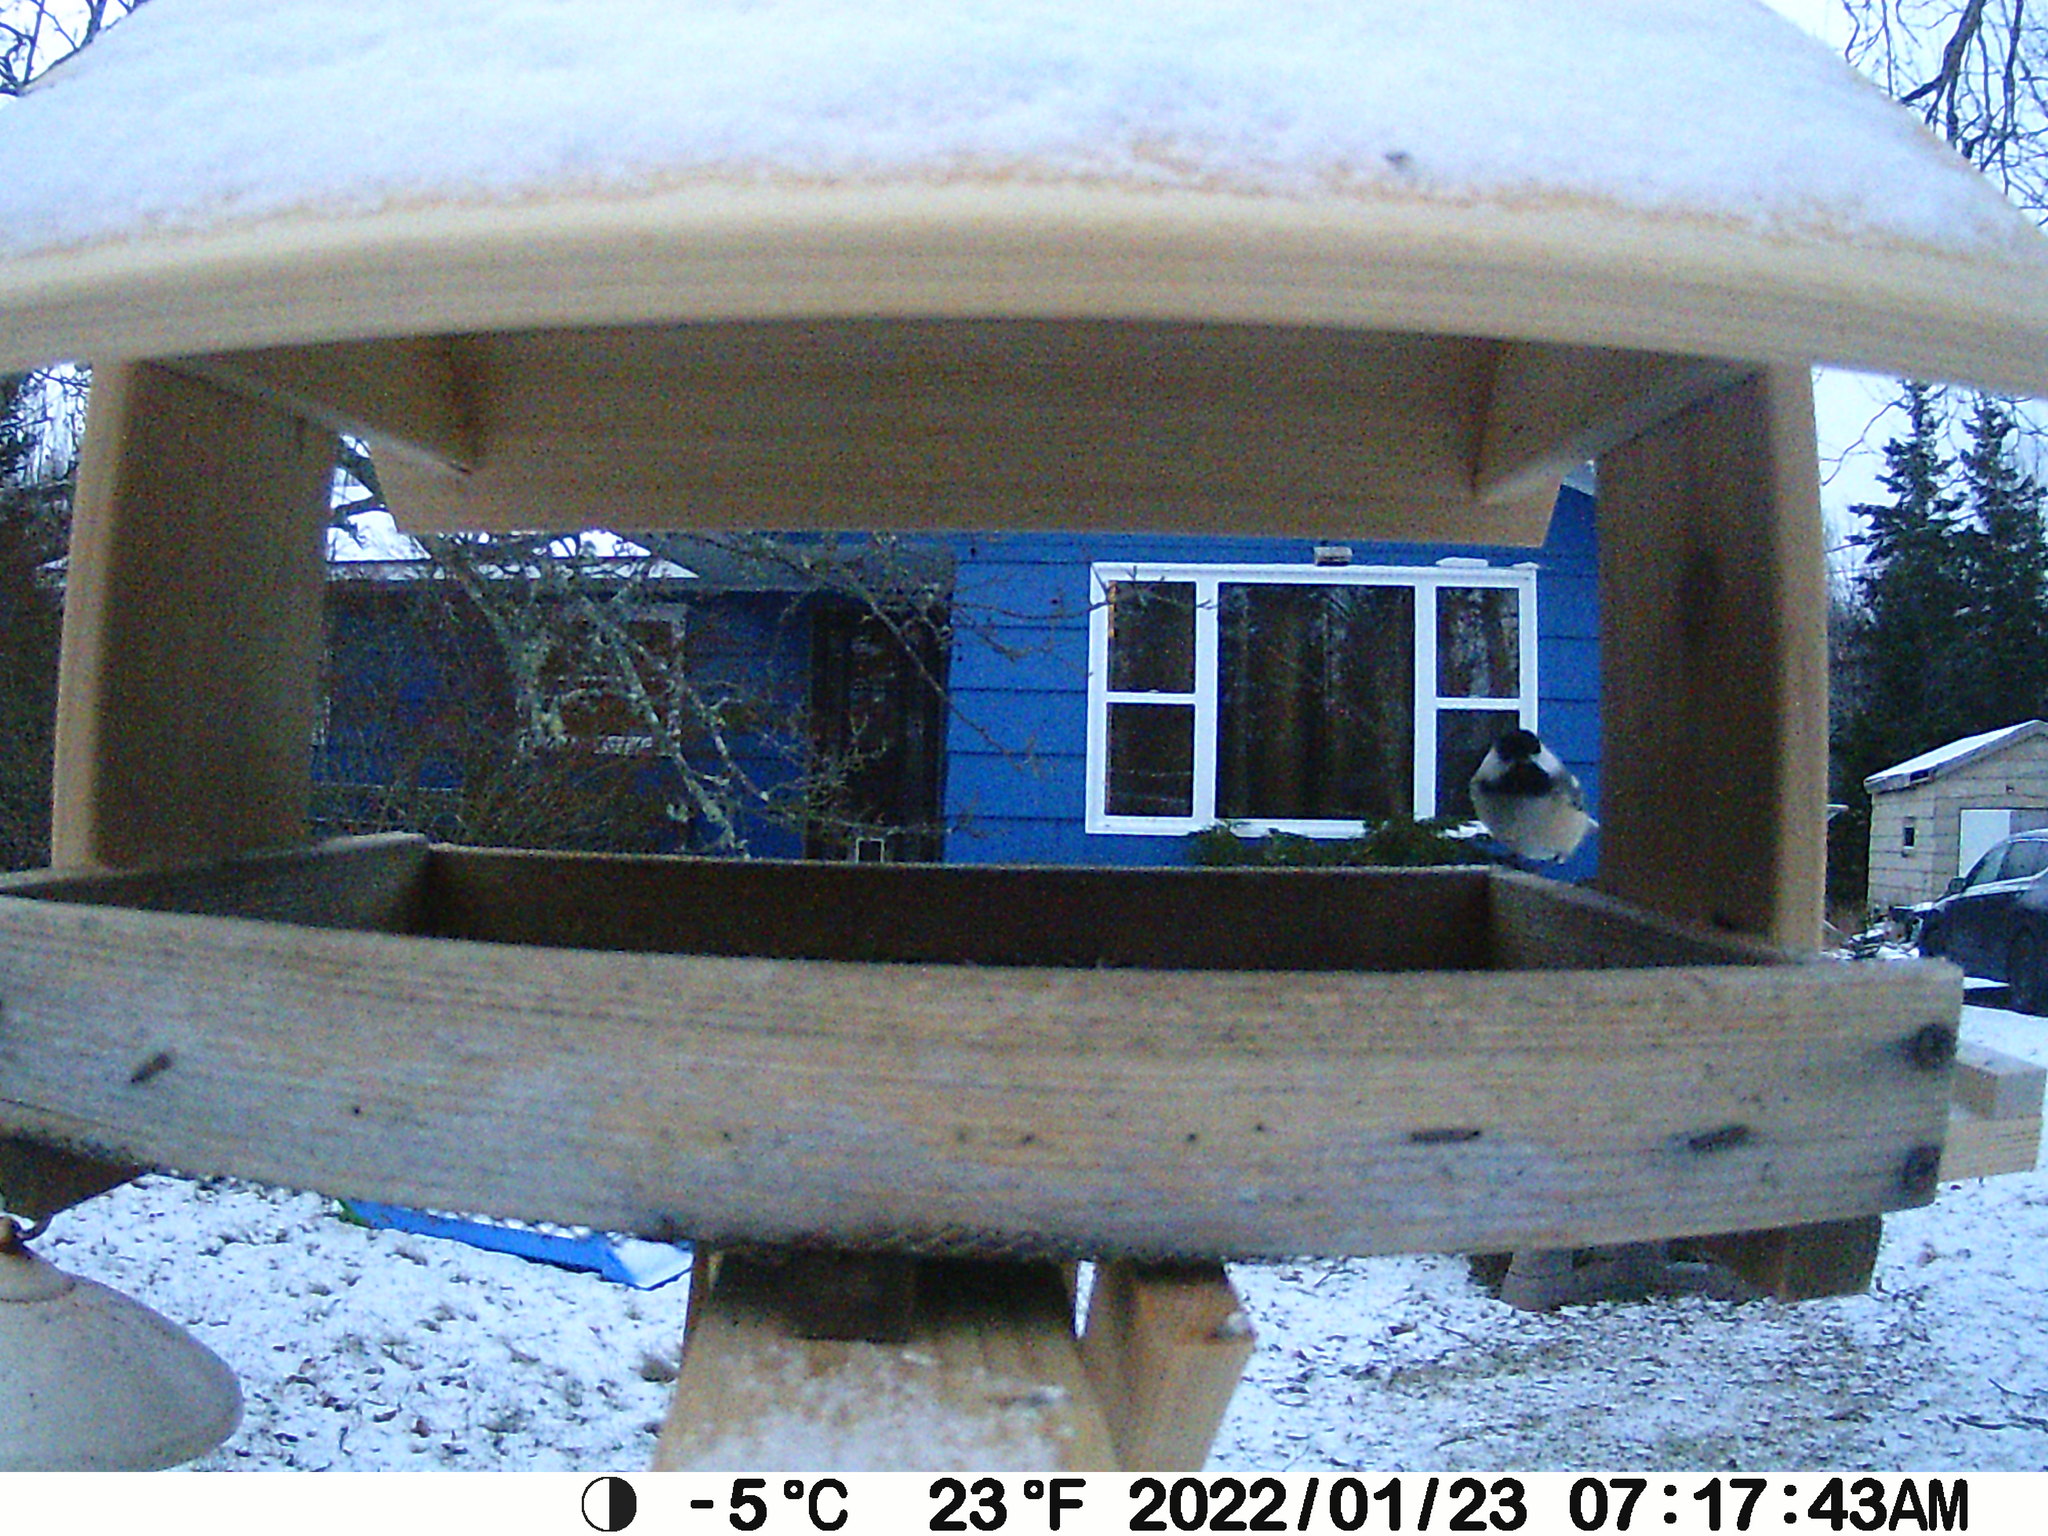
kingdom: Animalia
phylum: Chordata
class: Aves
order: Passeriformes
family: Paridae
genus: Poecile
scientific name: Poecile atricapillus
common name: Black-capped chickadee
